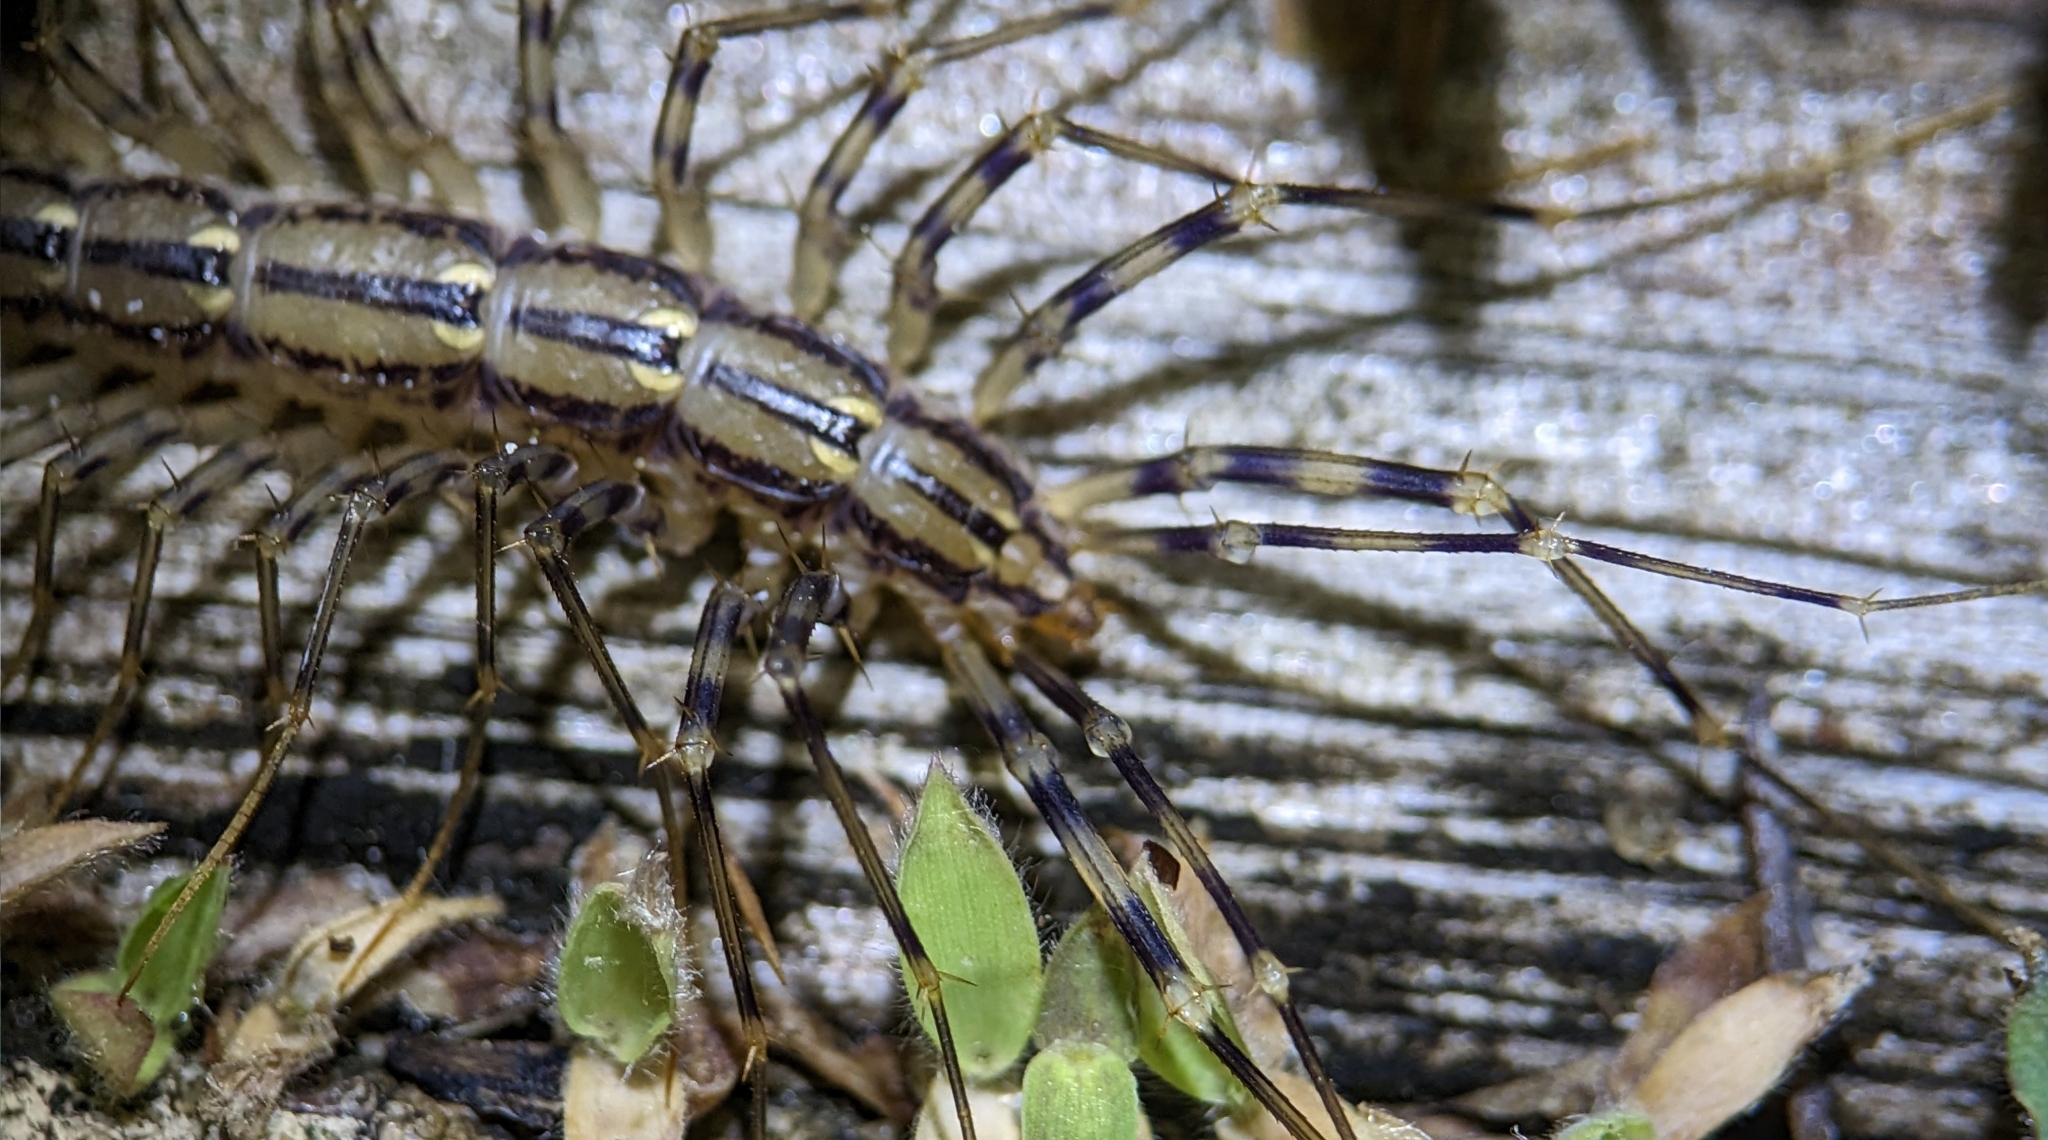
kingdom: Animalia
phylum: Arthropoda
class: Chilopoda
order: Scutigeromorpha
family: Scutigeridae
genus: Scutigera
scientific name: Scutigera coleoptrata
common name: House centipede
